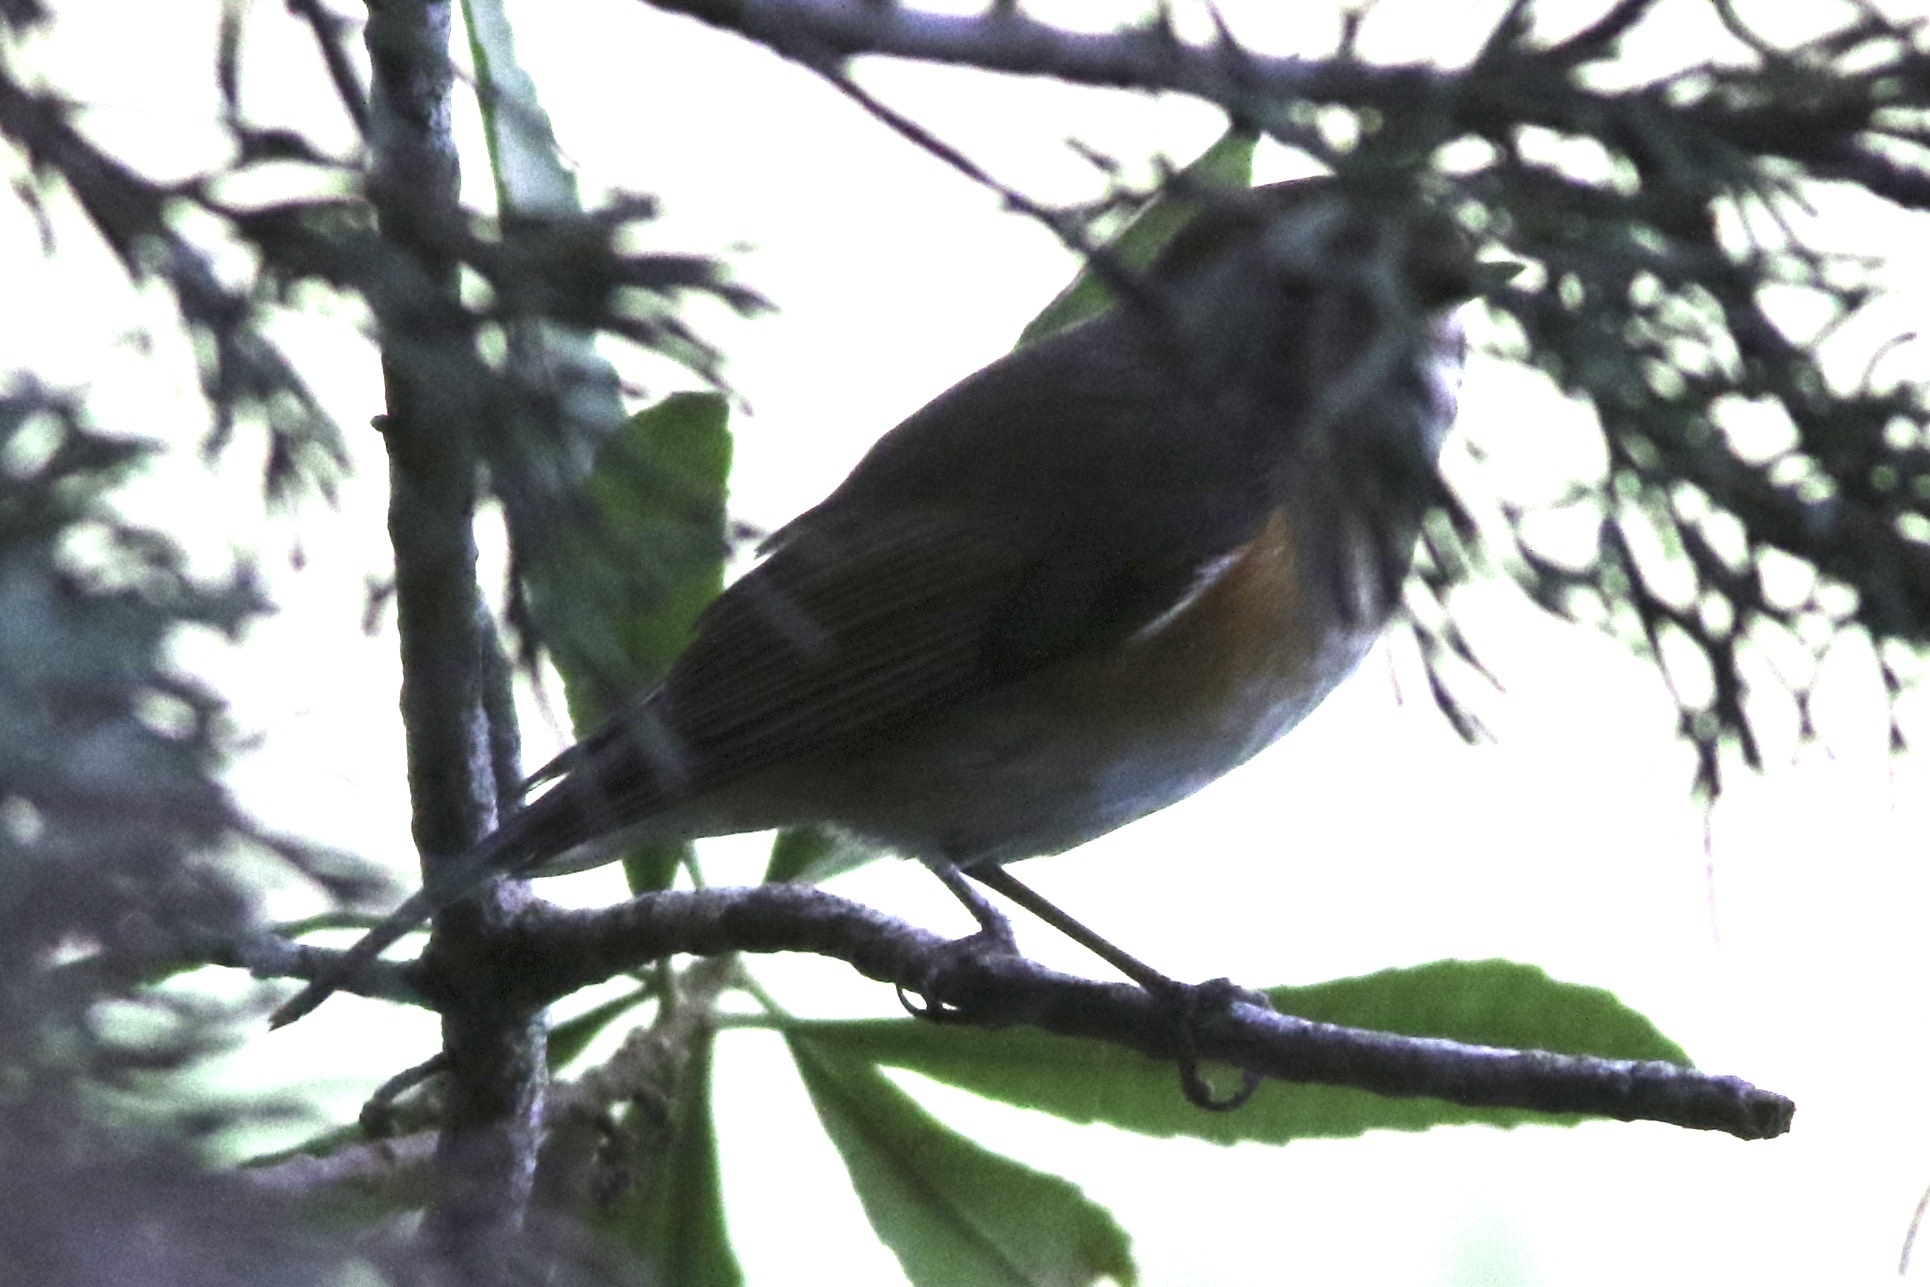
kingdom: Animalia
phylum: Chordata
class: Aves
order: Passeriformes
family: Muscicapidae
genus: Tarsiger
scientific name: Tarsiger cyanurus
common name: Red-flanked bluetail
